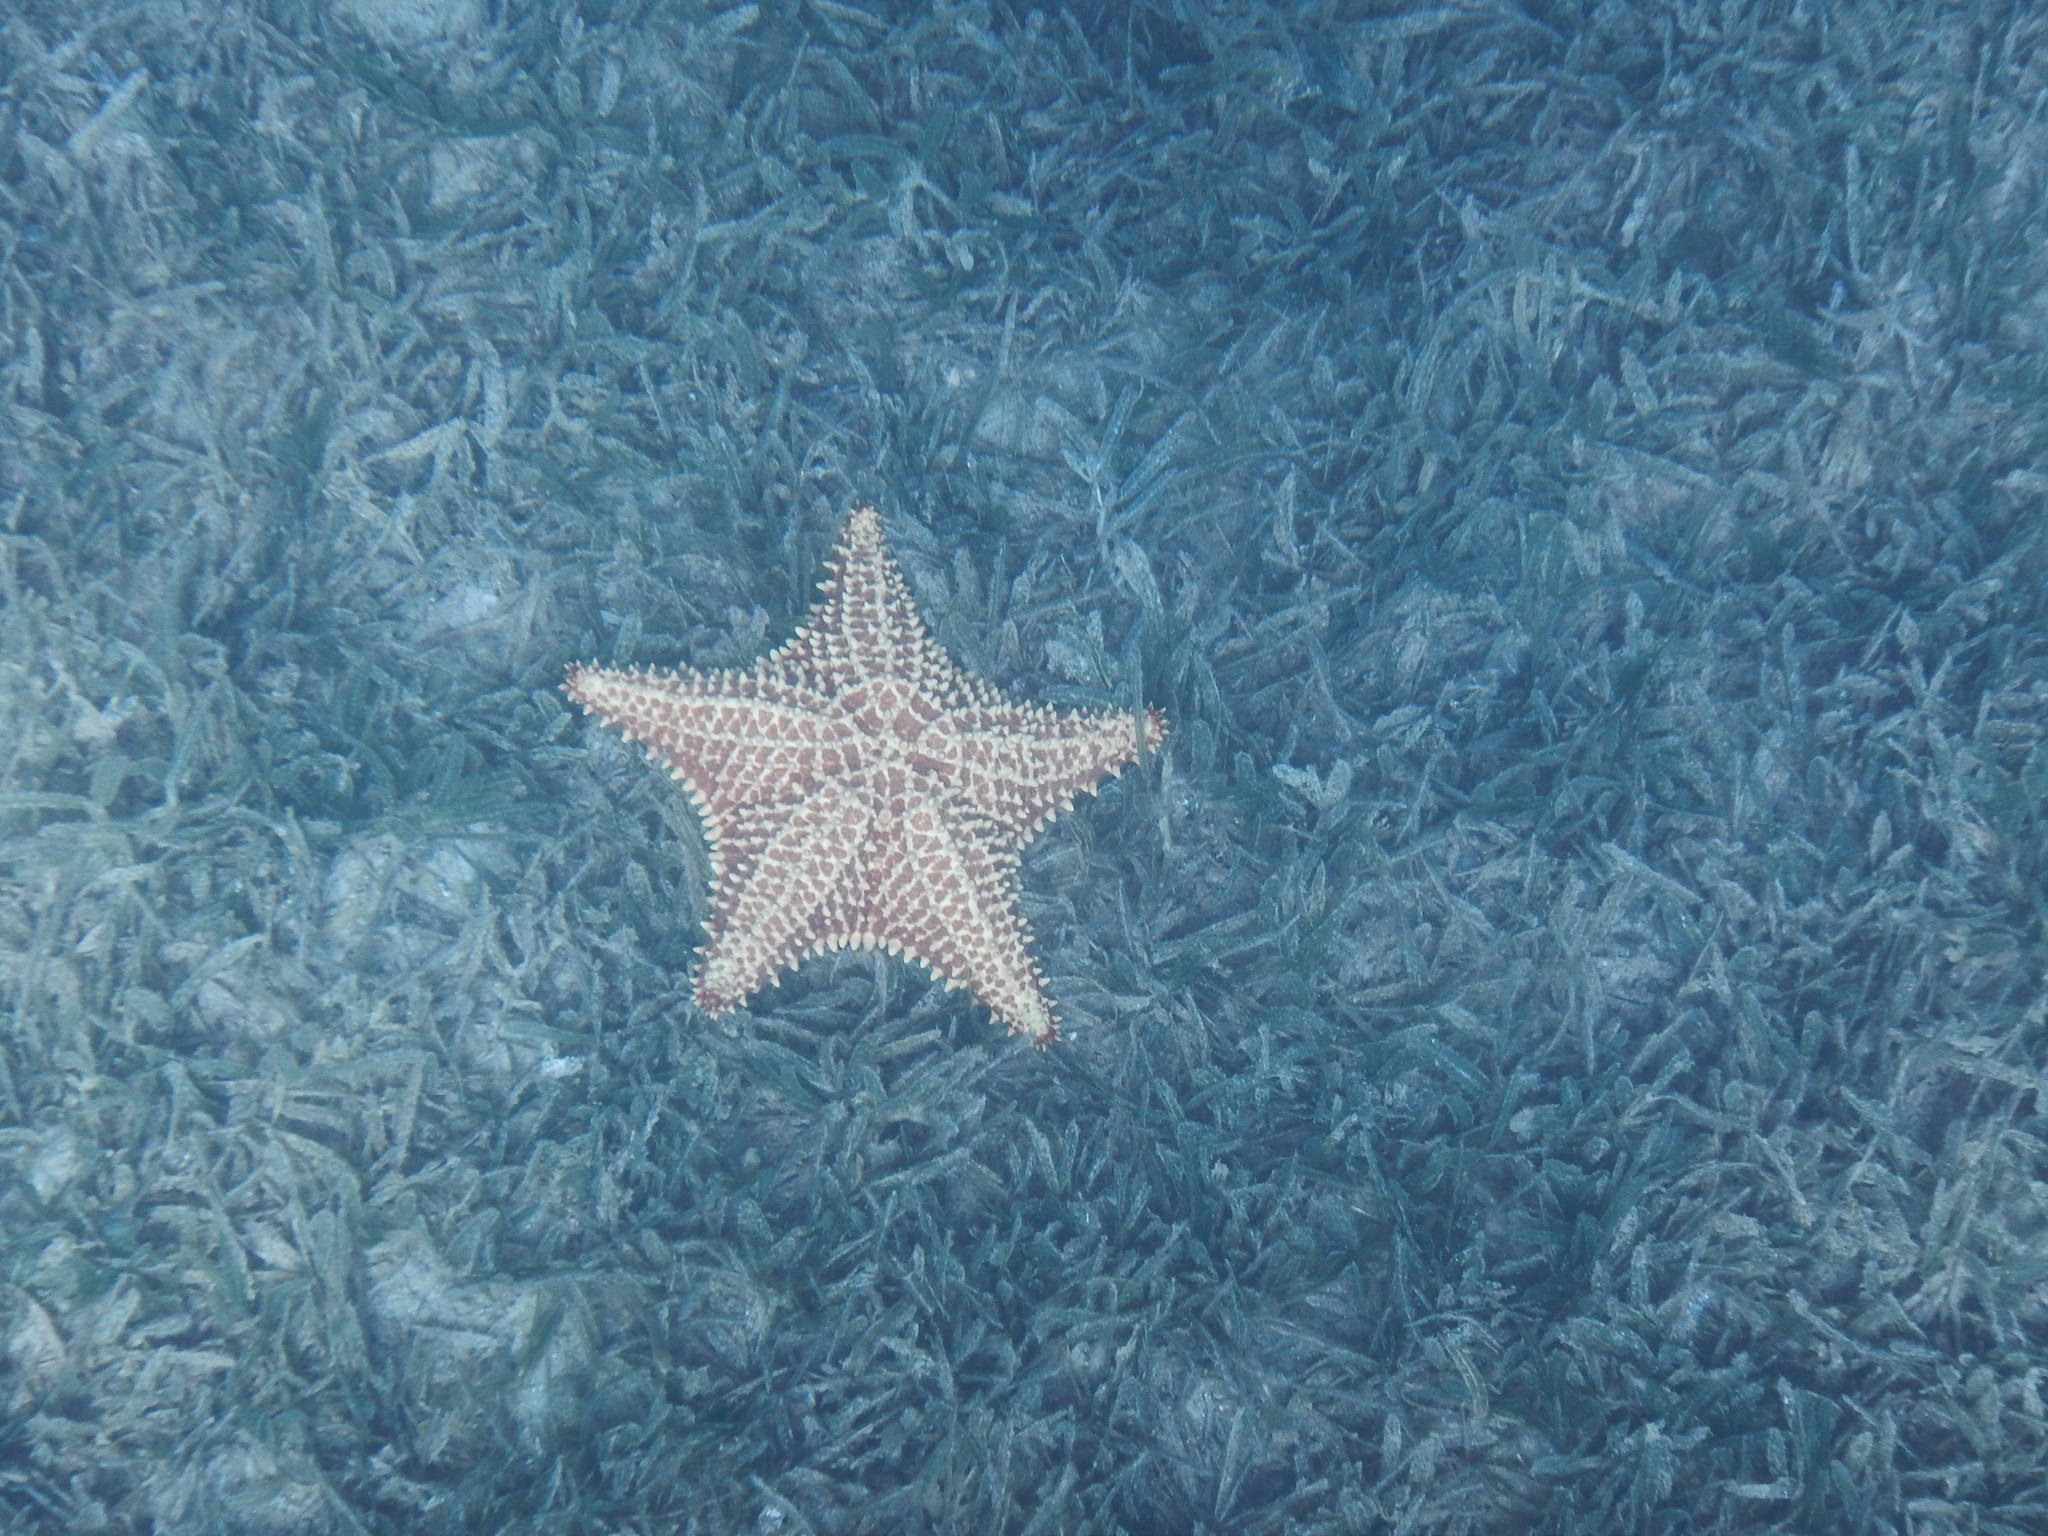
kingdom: Animalia
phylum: Echinodermata
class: Asteroidea
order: Valvatida
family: Oreasteridae
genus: Oreaster
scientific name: Oreaster reticulatus
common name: Cushion sea star
